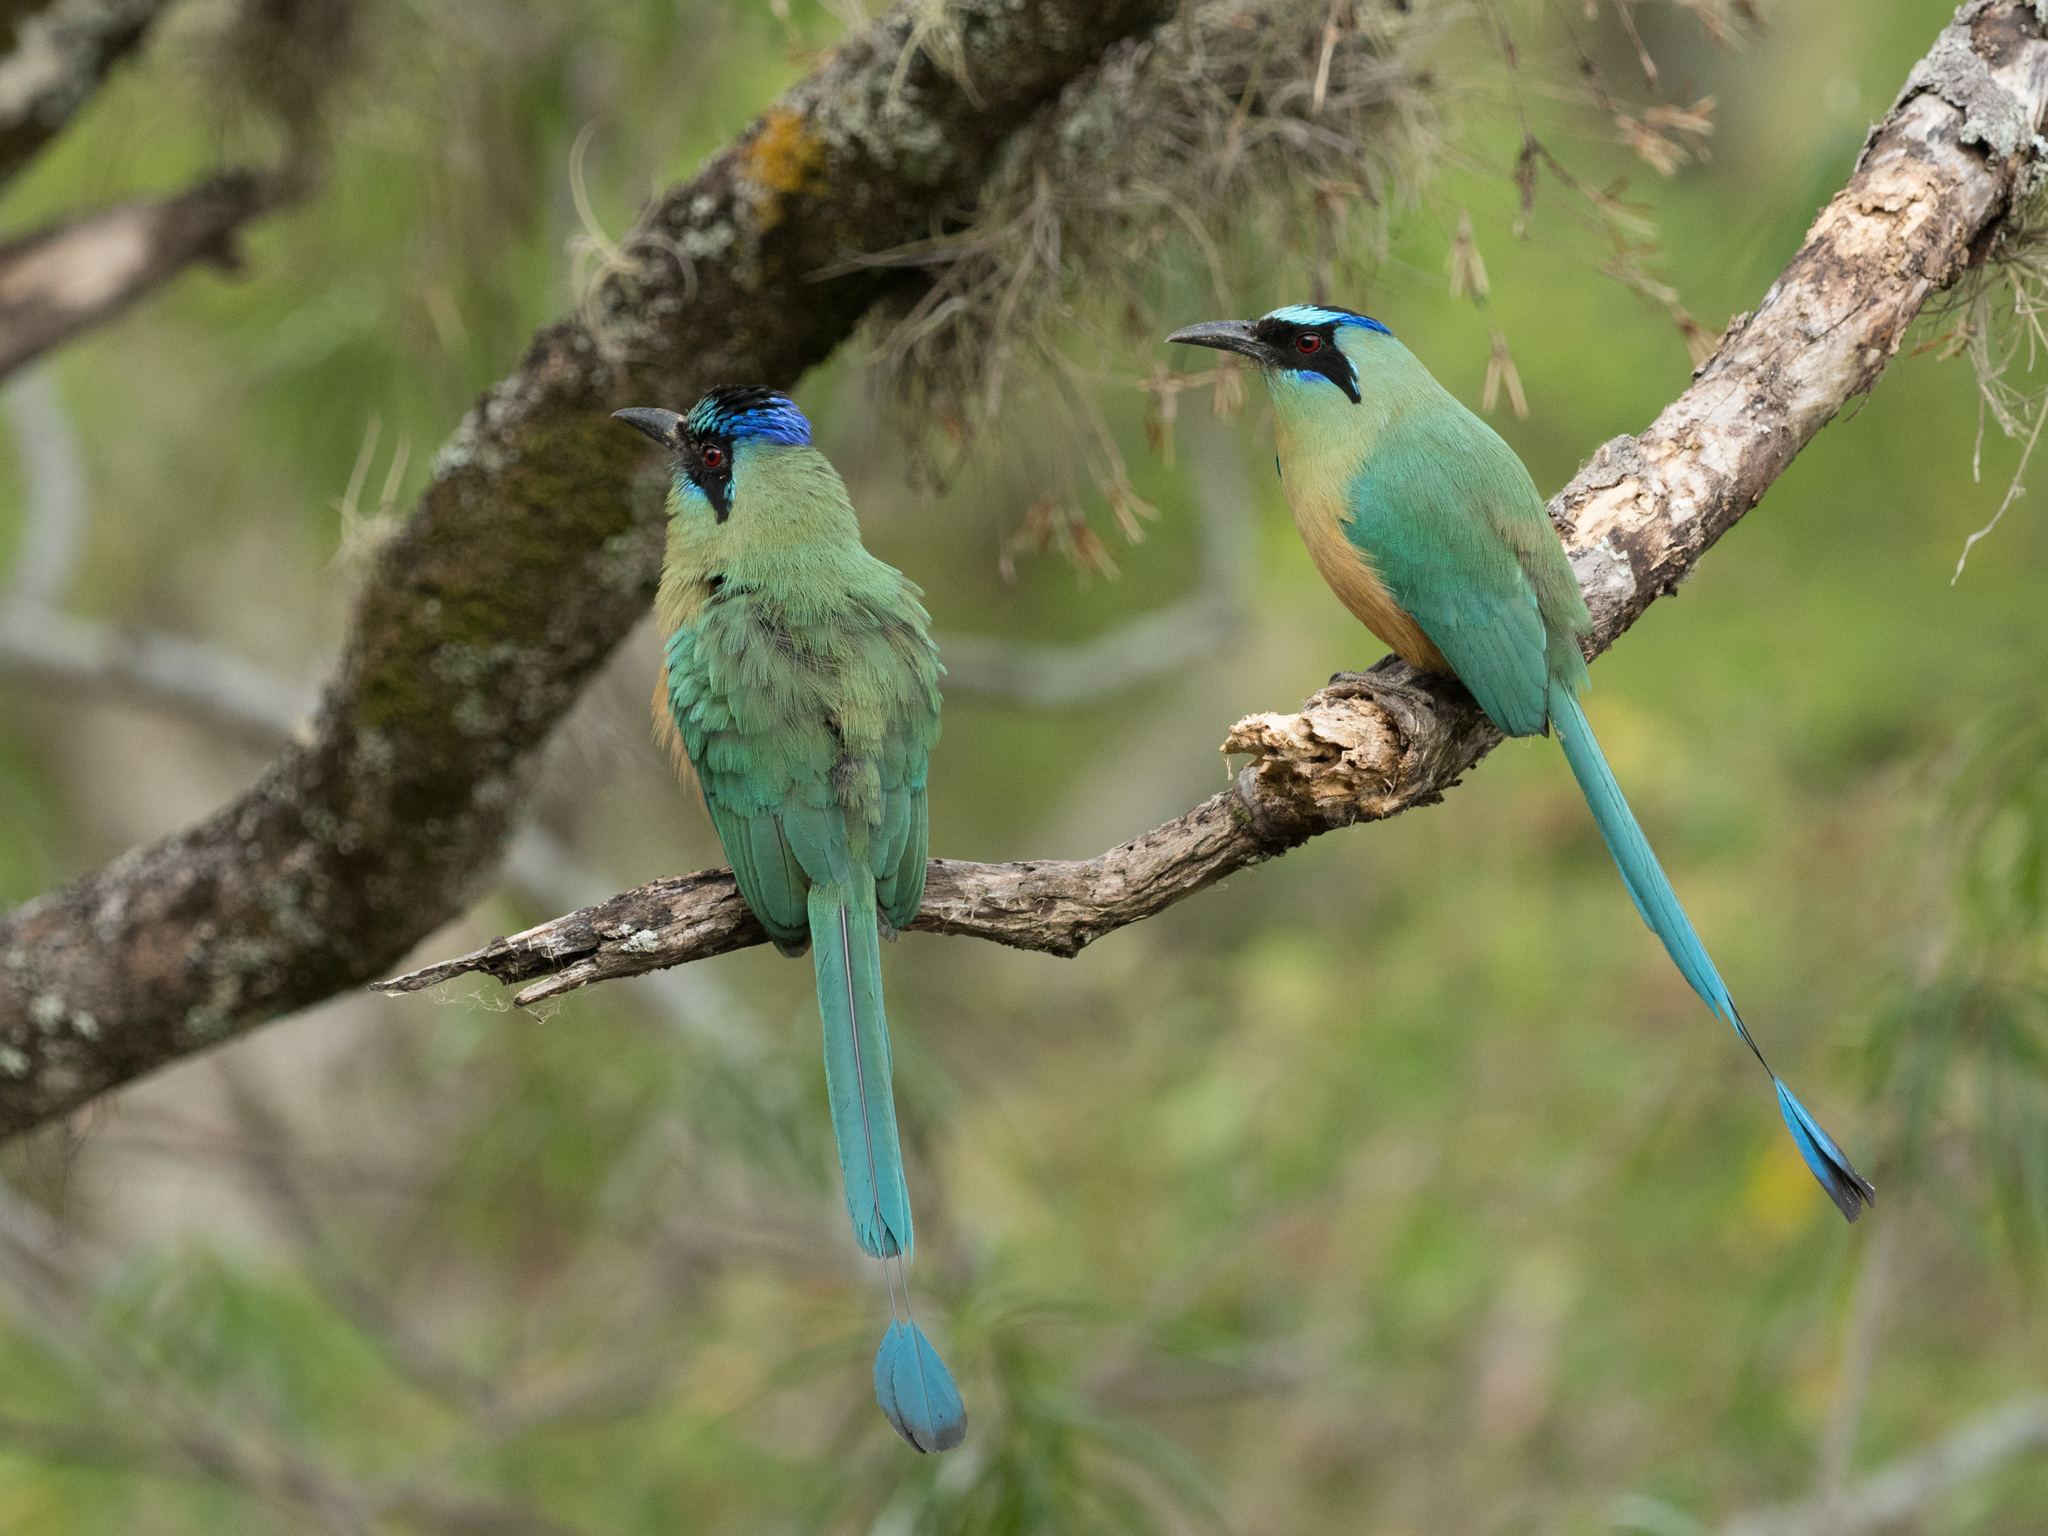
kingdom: Animalia
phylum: Chordata
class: Aves
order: Coraciiformes
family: Momotidae
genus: Momotus
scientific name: Momotus subrufescens
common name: Whooping motmot
